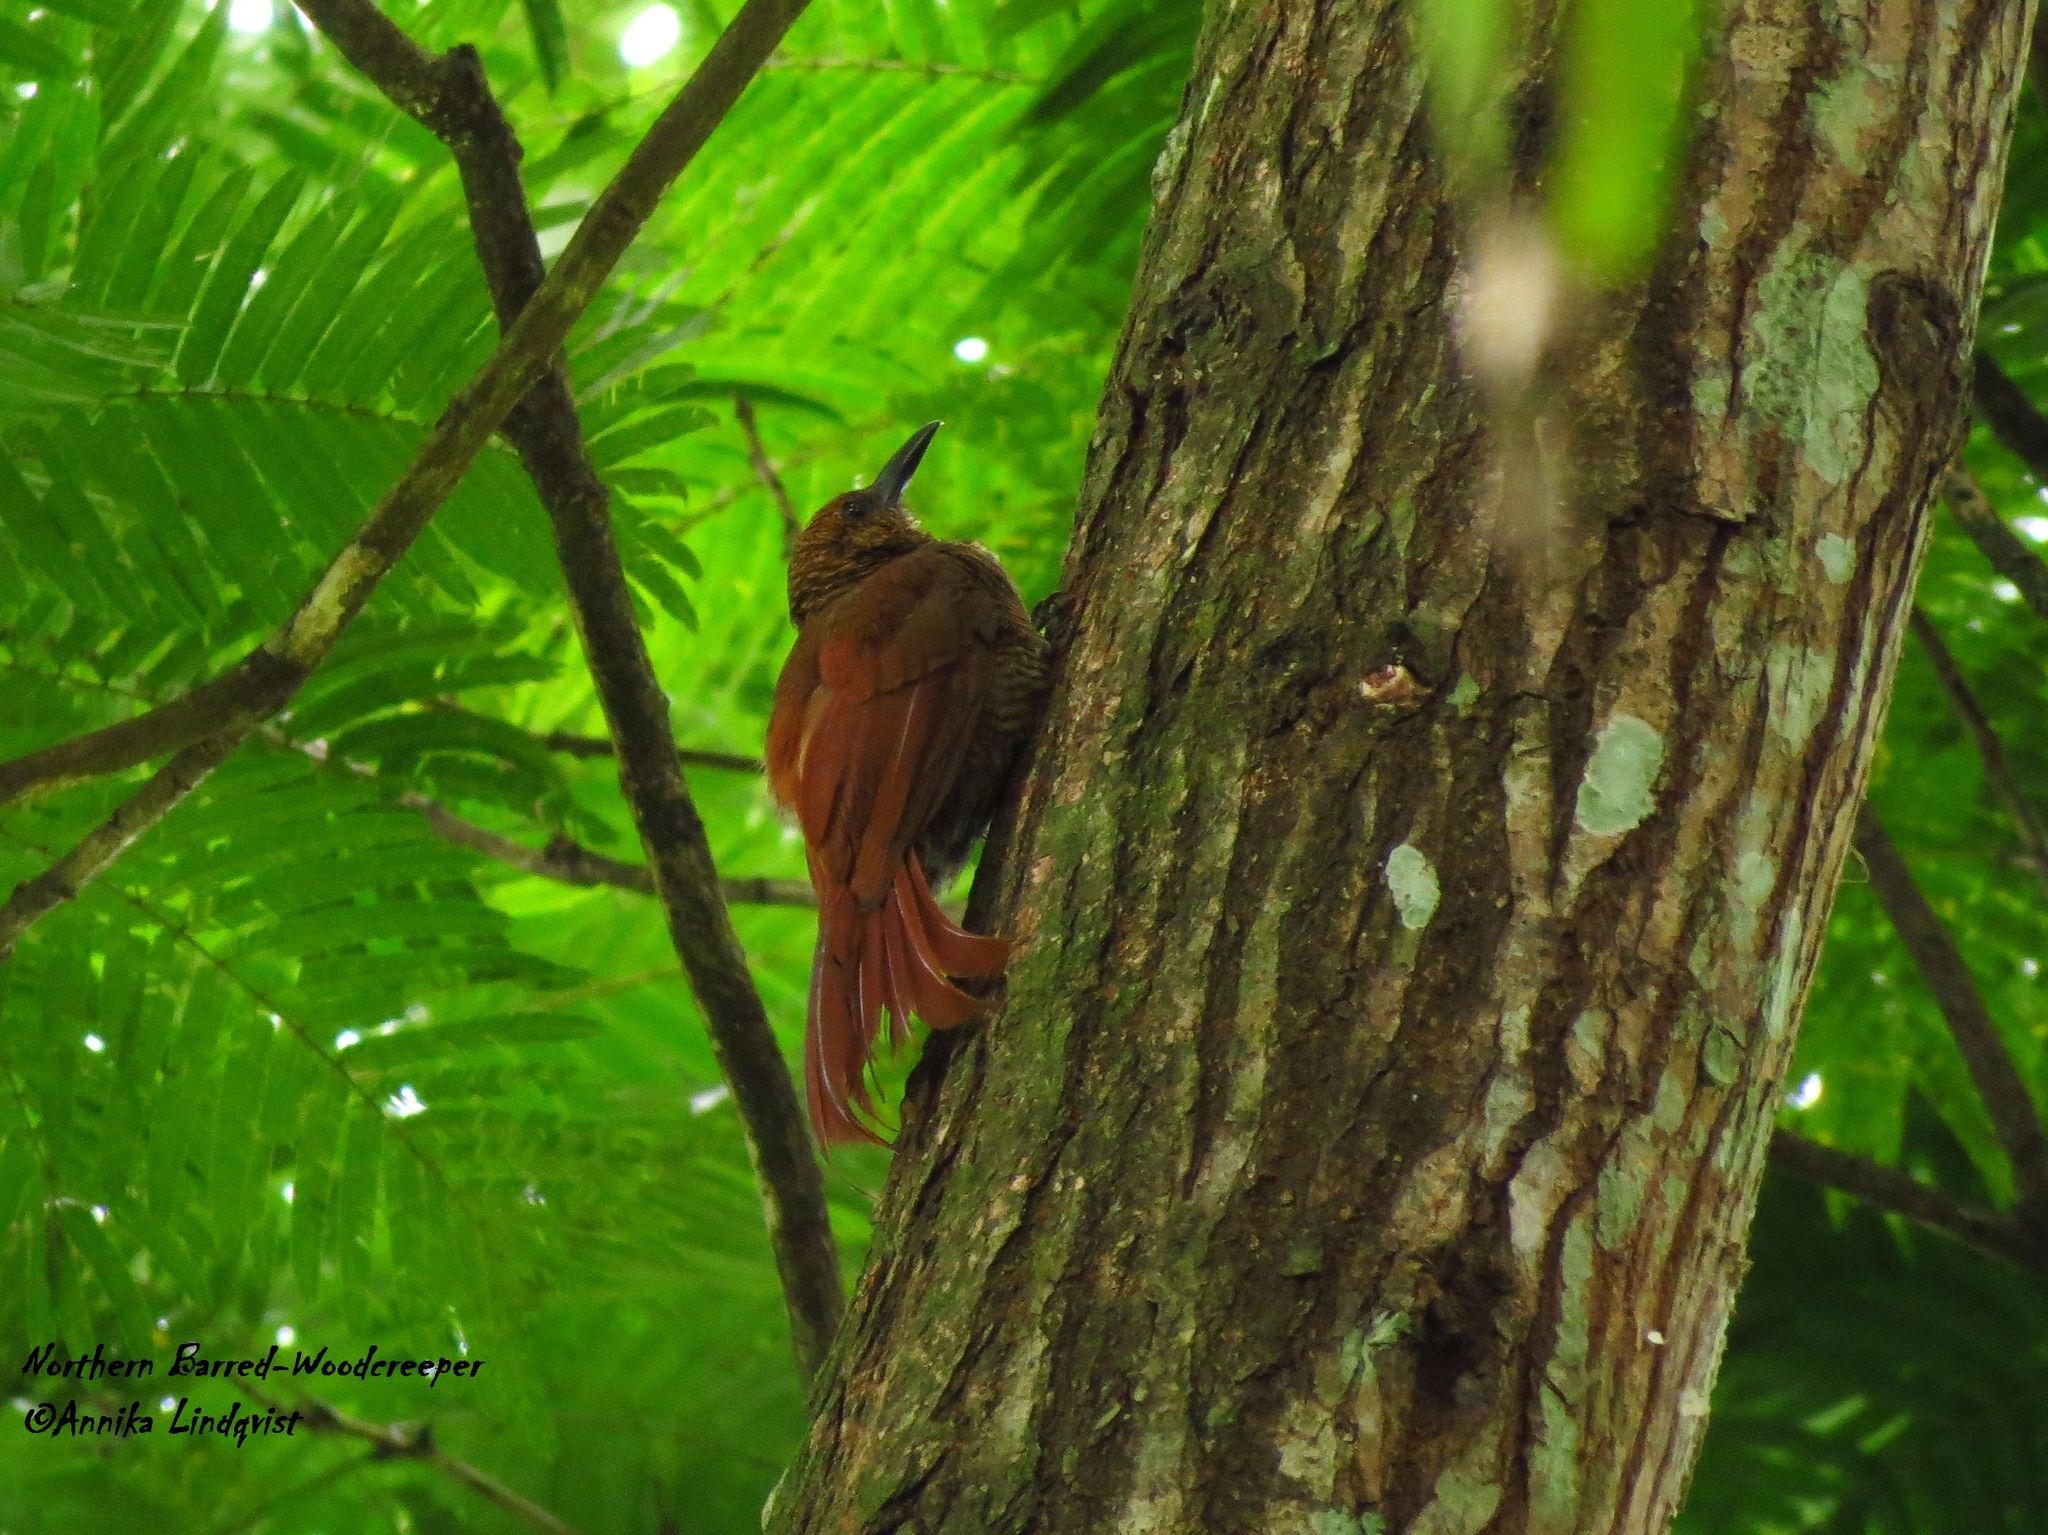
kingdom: Animalia
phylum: Chordata
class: Aves
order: Passeriformes
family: Furnariidae
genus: Dendrocolaptes
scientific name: Dendrocolaptes sanctithomae
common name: Northern barred-woodcreeper
